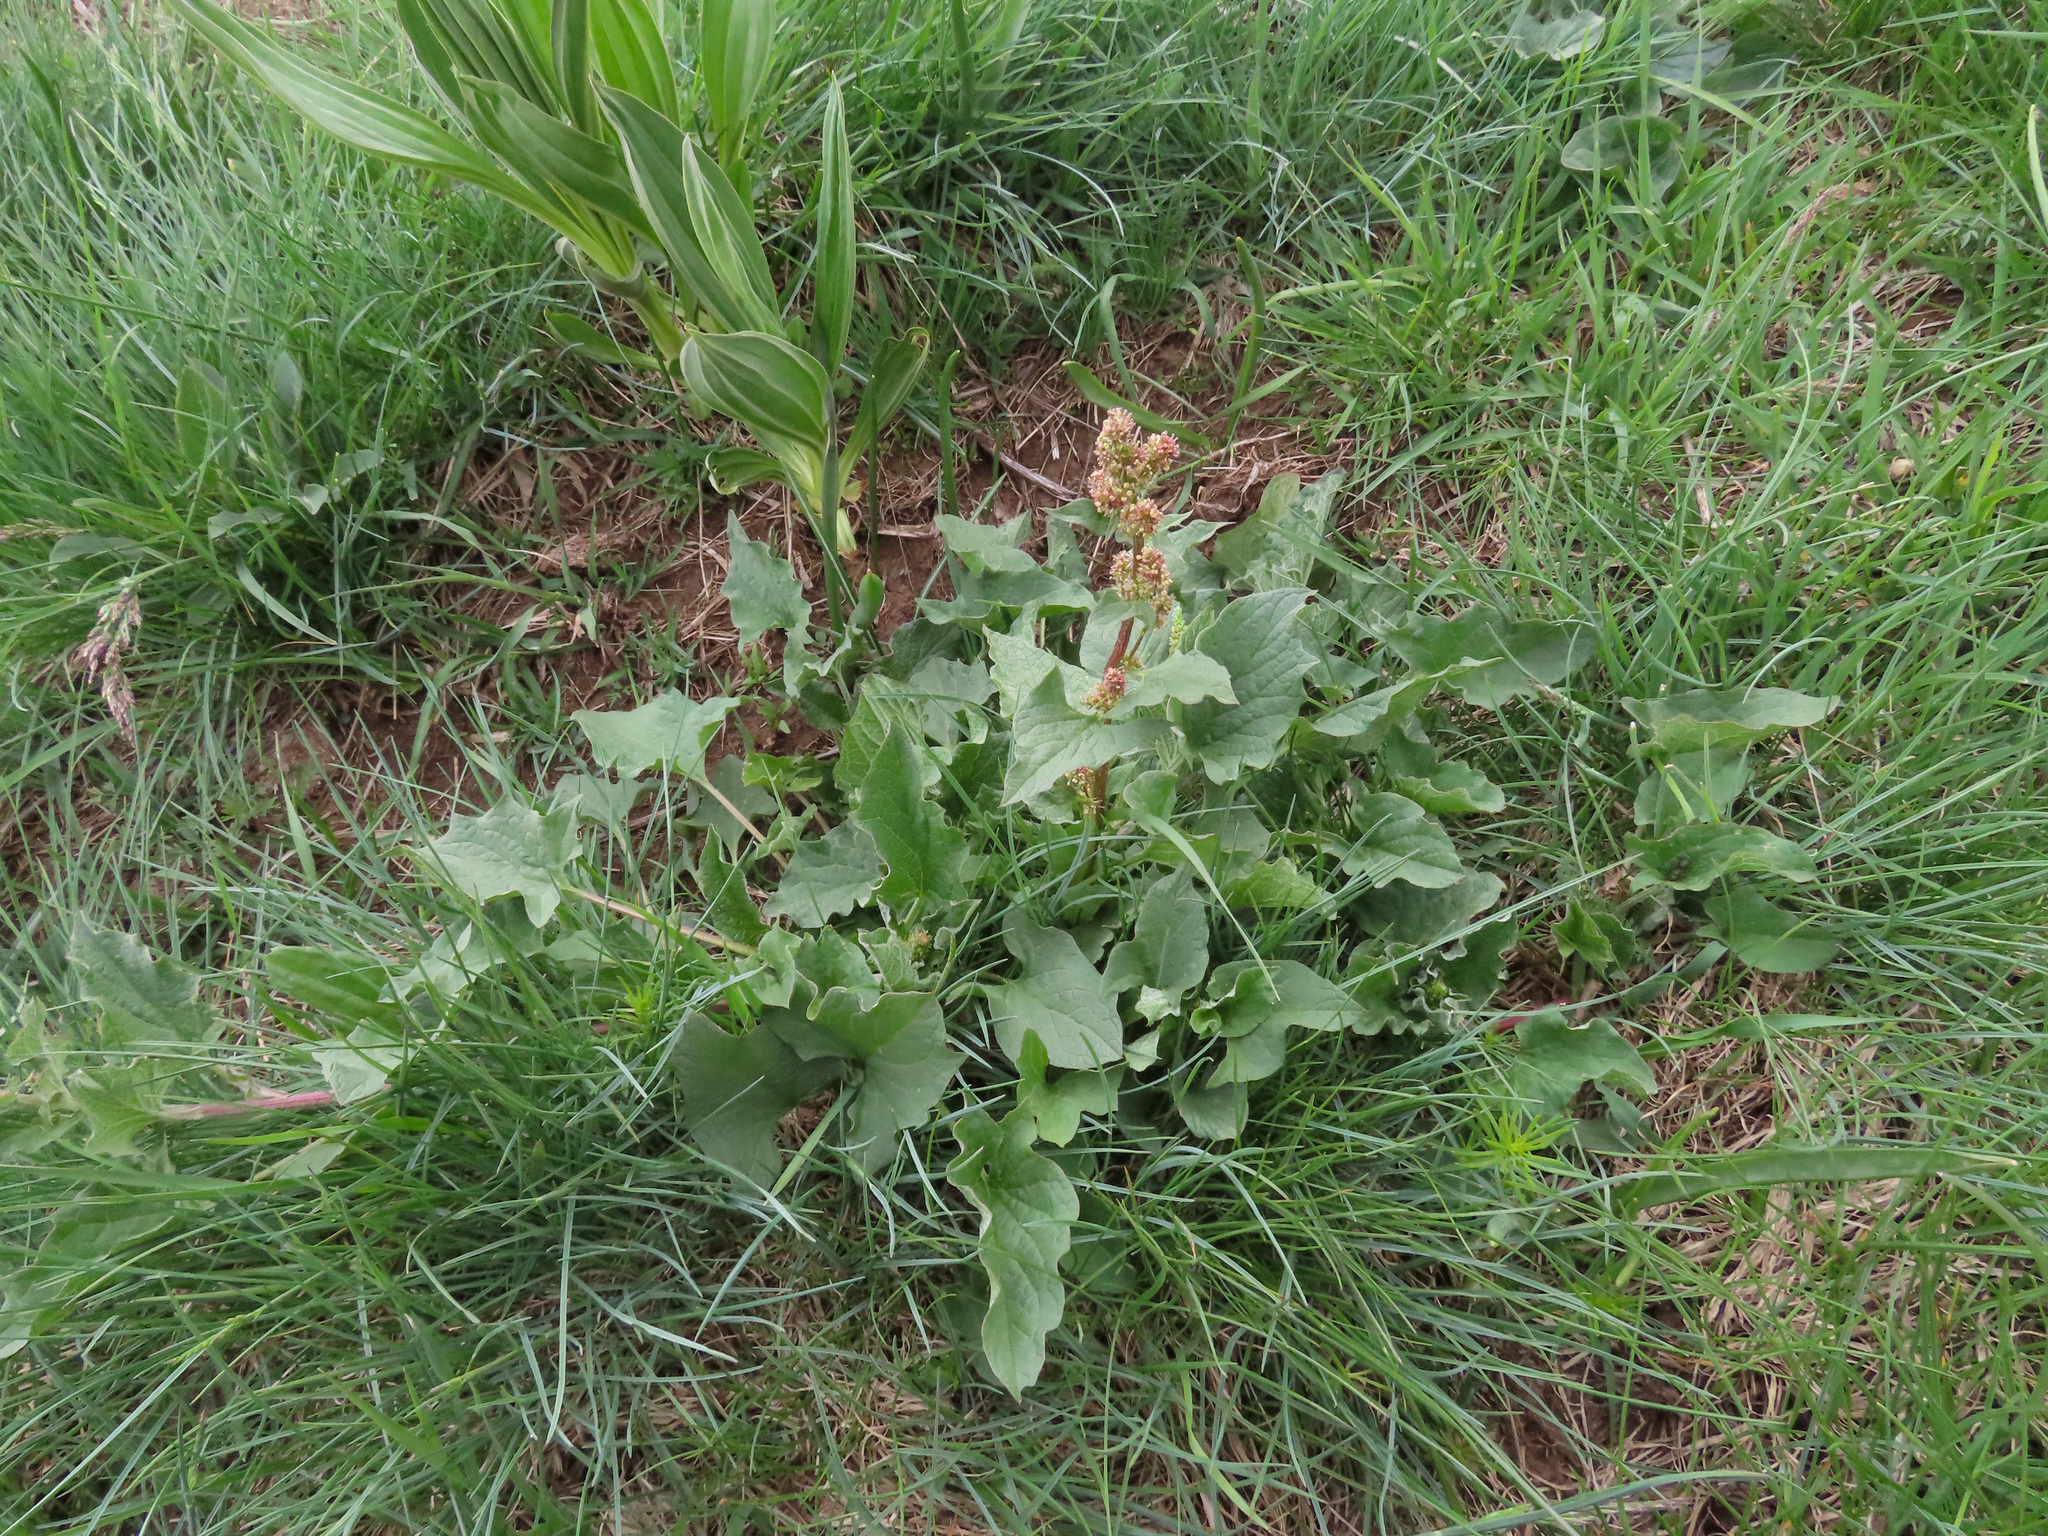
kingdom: Plantae
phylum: Tracheophyta
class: Magnoliopsida
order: Caryophyllales
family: Amaranthaceae
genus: Blitum
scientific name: Blitum bonus-henricus
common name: Good king henry
